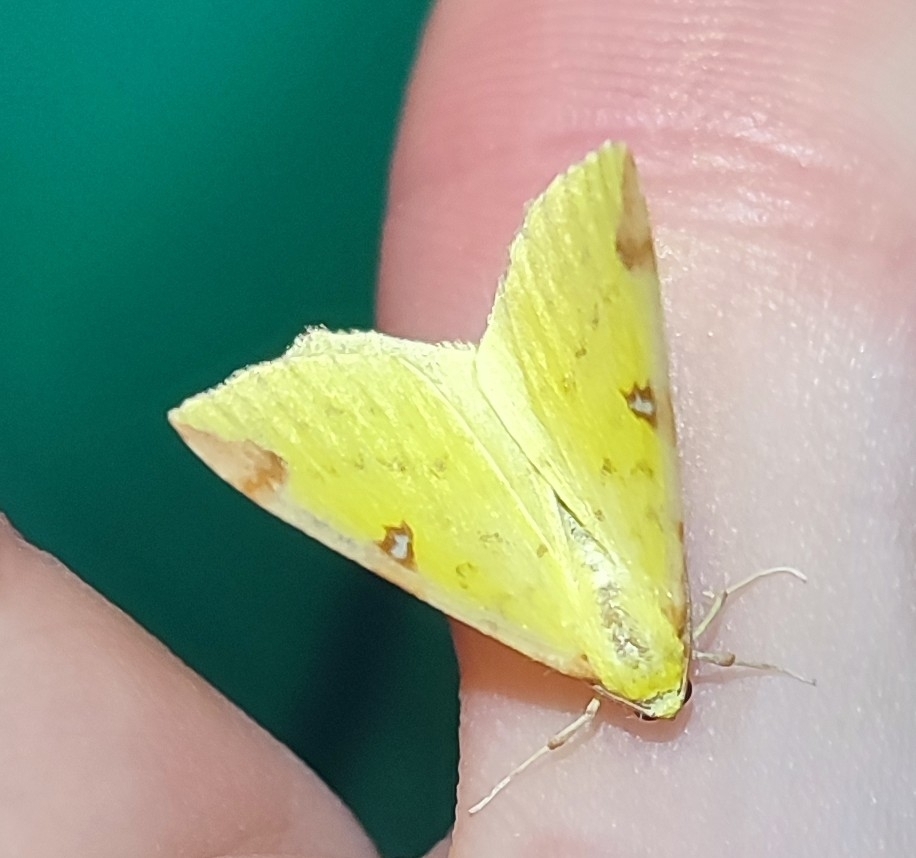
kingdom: Animalia
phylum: Arthropoda
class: Insecta
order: Lepidoptera
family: Geometridae
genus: Opisthograptis
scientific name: Opisthograptis luteolata
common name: Brimstone moth
